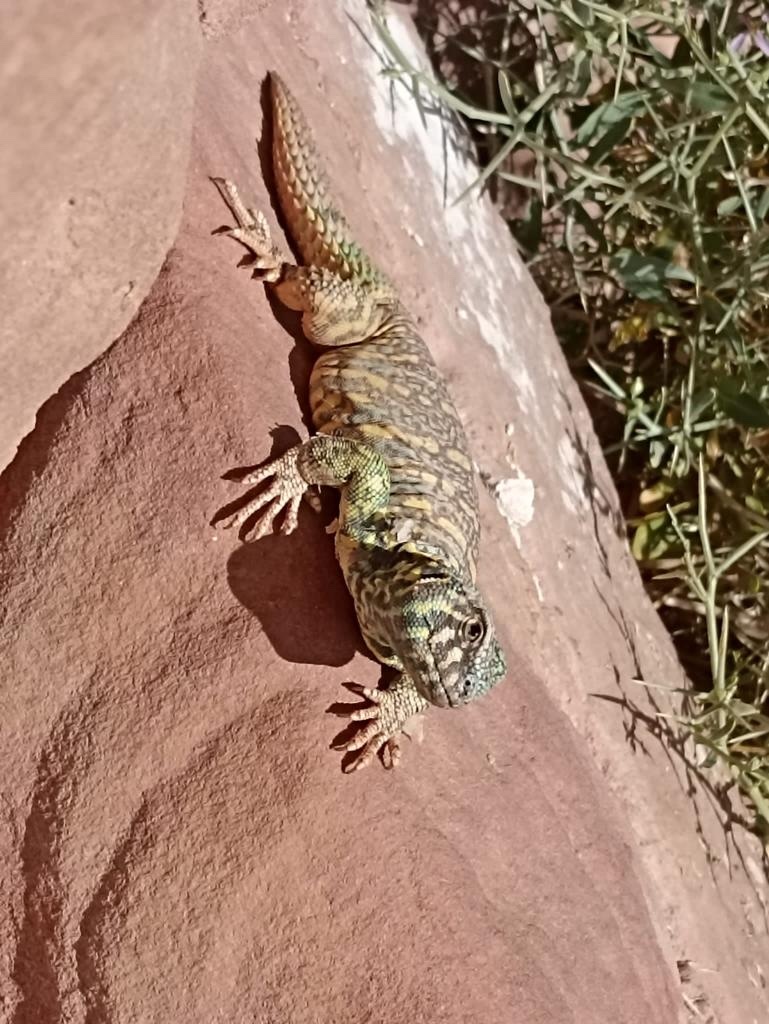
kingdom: Animalia
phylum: Chordata
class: Squamata
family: Agamidae
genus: Uromastyx
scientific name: Uromastyx ornata
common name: Ornate mastigure
